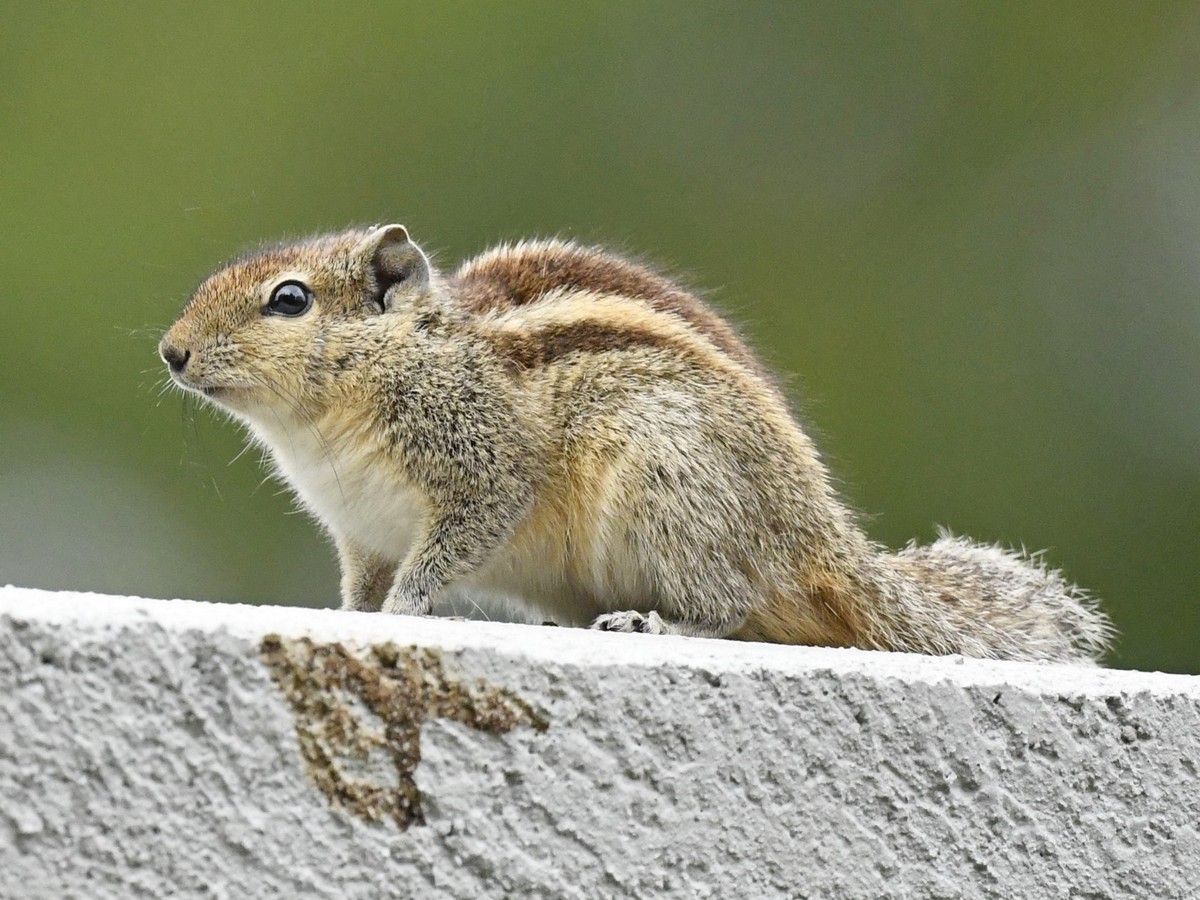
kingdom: Animalia
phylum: Chordata
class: Mammalia
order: Rodentia
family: Sciuridae
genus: Funambulus
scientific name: Funambulus palmarum
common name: Indian palm squirrel
